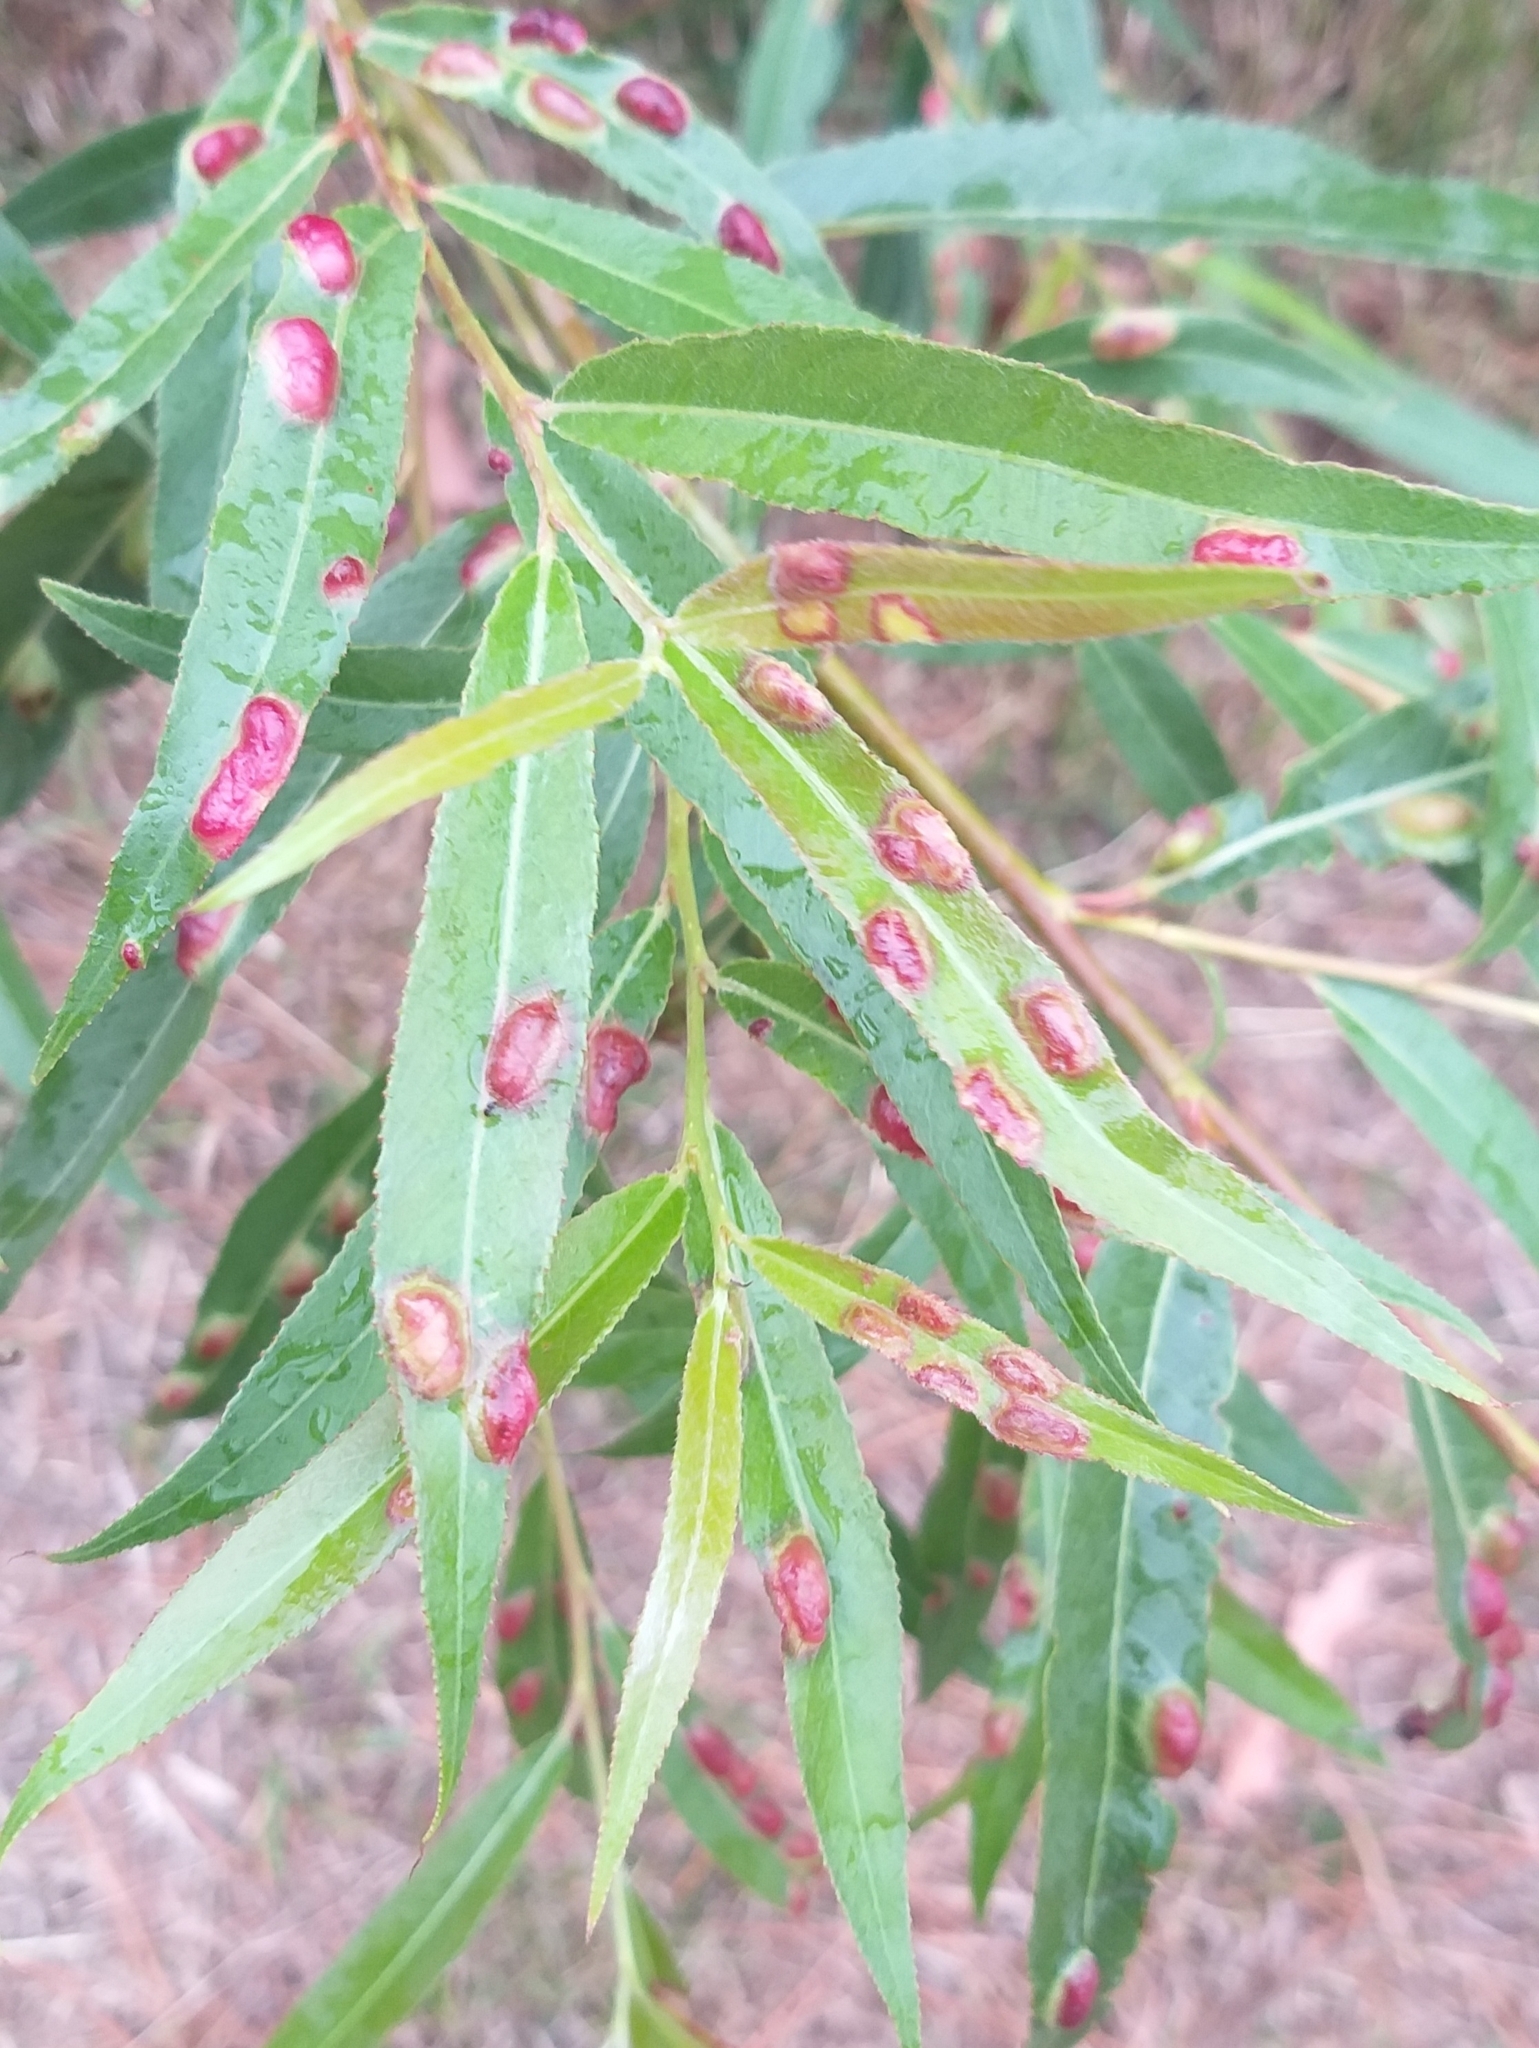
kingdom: Animalia
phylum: Arthropoda
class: Insecta
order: Hymenoptera
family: Tenthredinidae
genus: Pontania
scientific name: Pontania proxima
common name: Common sawfly
